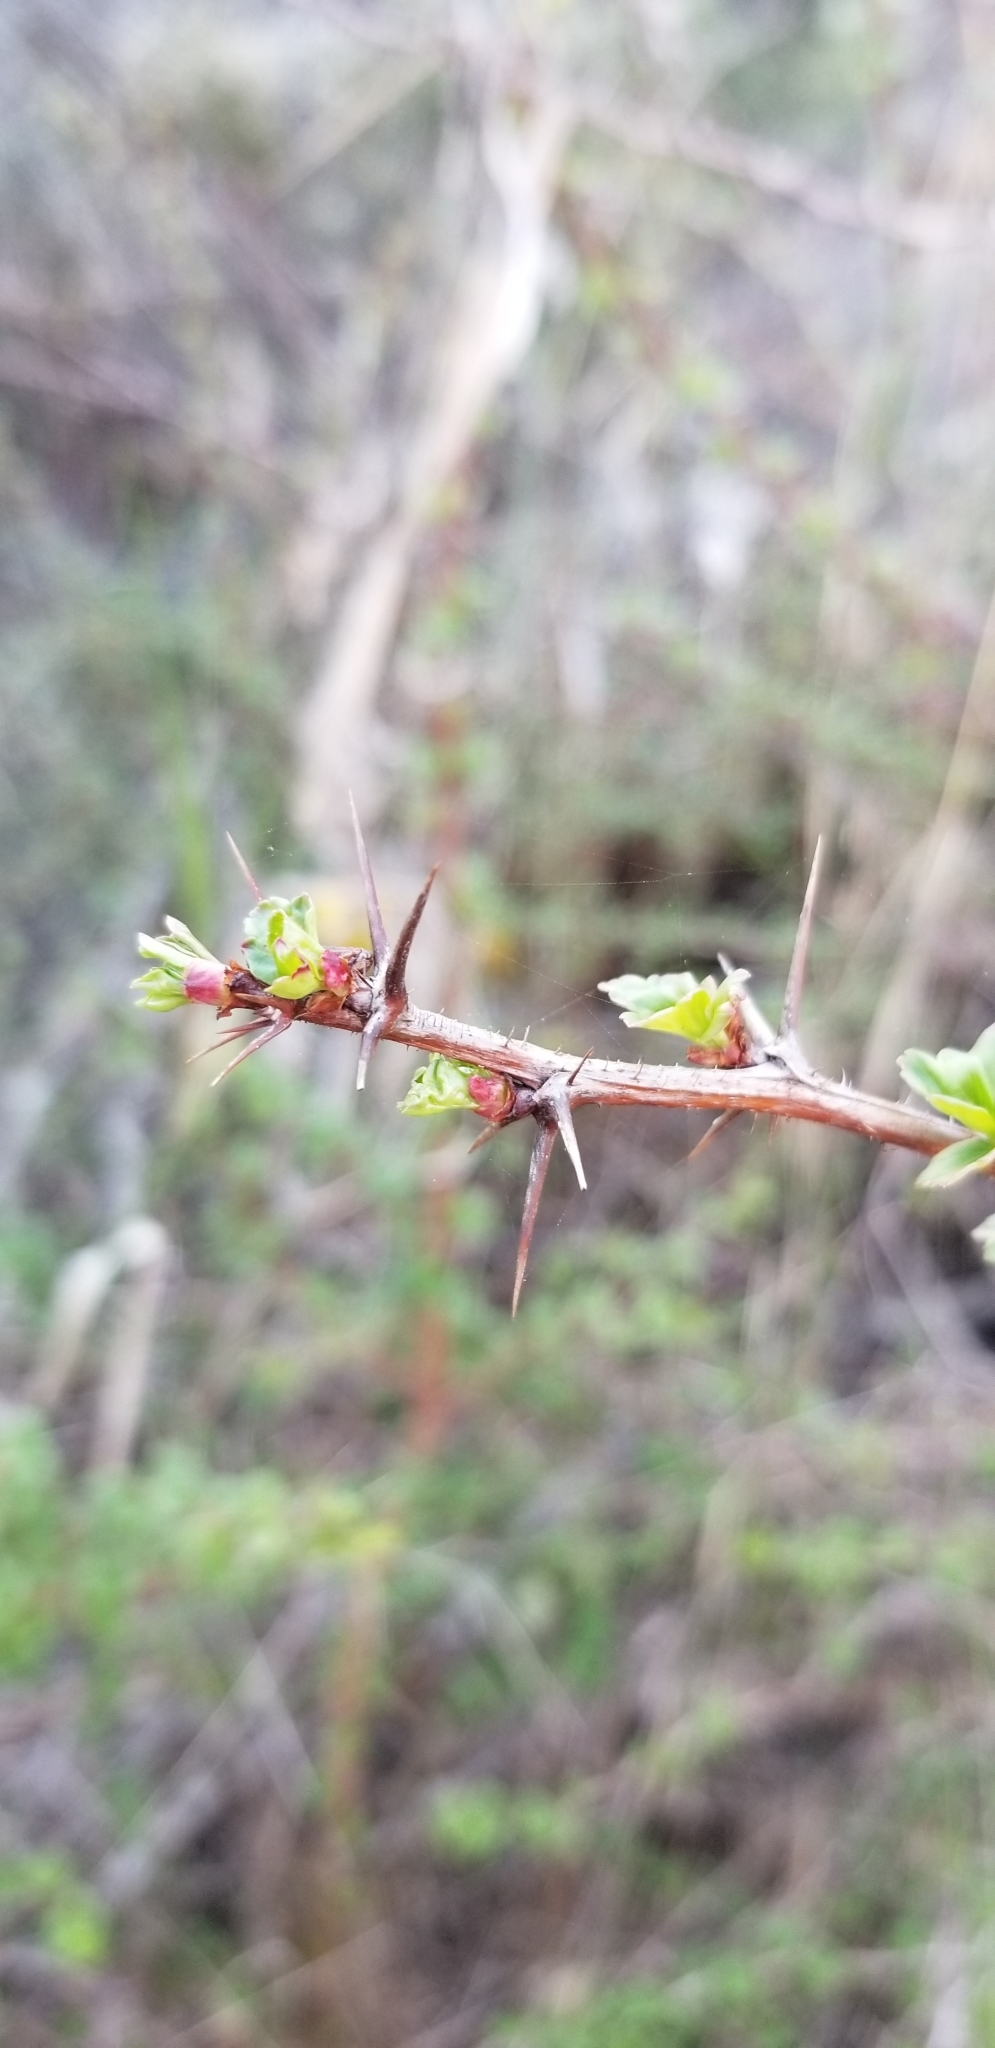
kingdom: Plantae
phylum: Tracheophyta
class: Magnoliopsida
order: Saxifragales
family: Grossulariaceae
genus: Ribes
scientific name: Ribes speciosum
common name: Fuchsia-flower gooseberry
